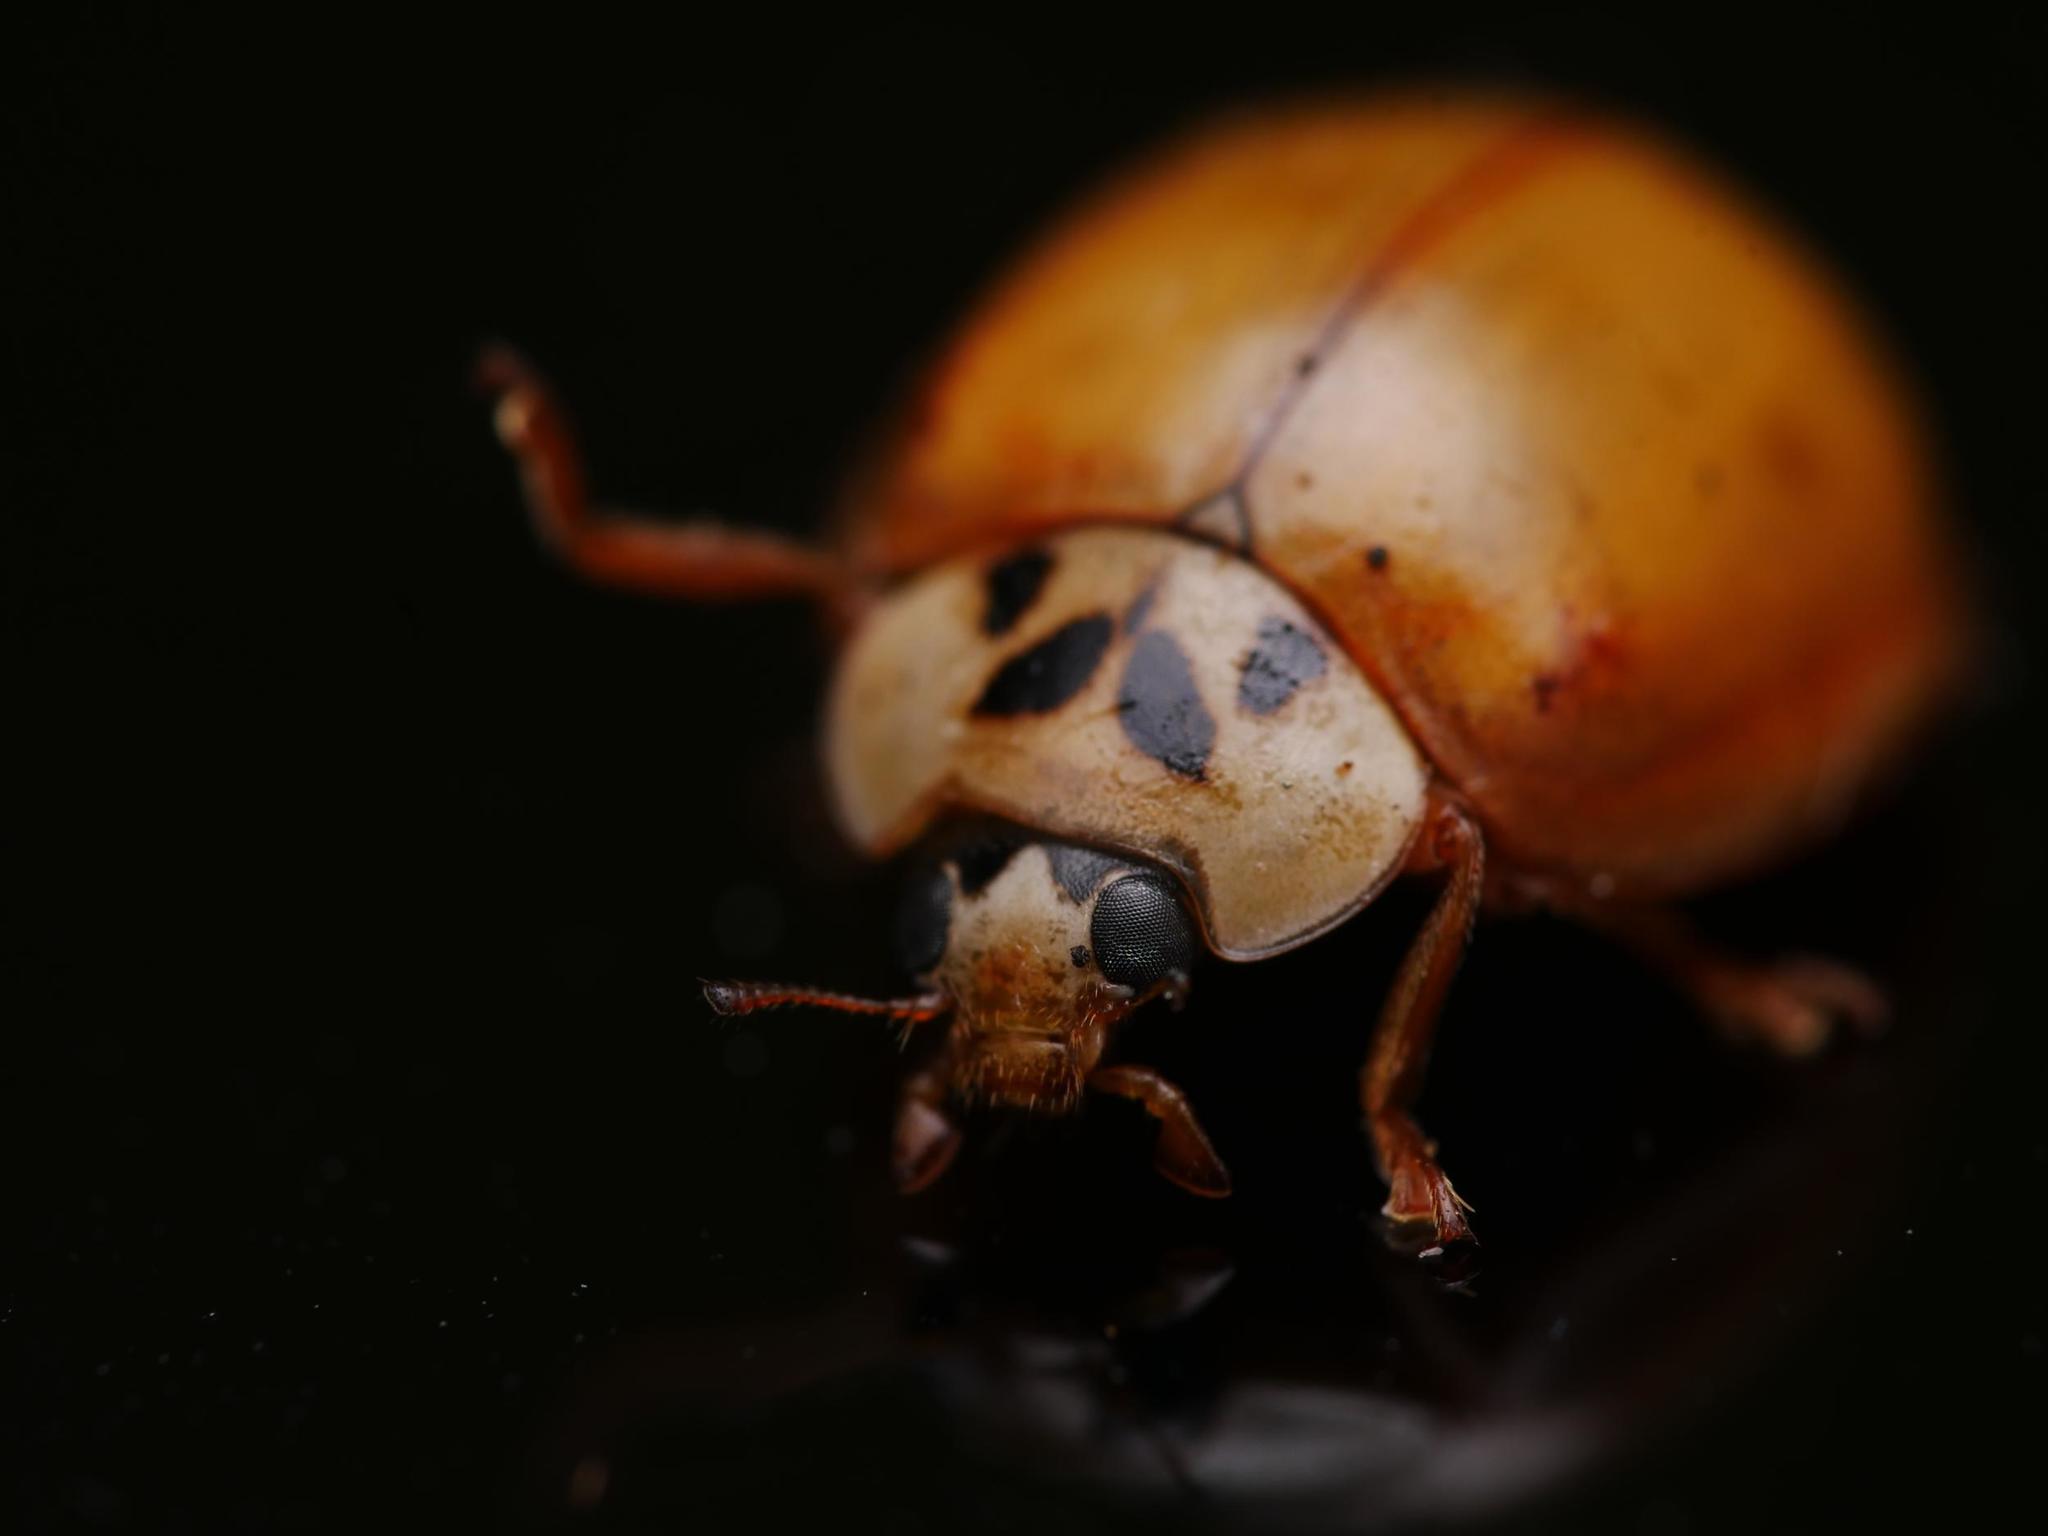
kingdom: Animalia
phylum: Arthropoda
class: Insecta
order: Coleoptera
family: Coccinellidae
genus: Harmonia
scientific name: Harmonia axyridis
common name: Harlequin ladybird
